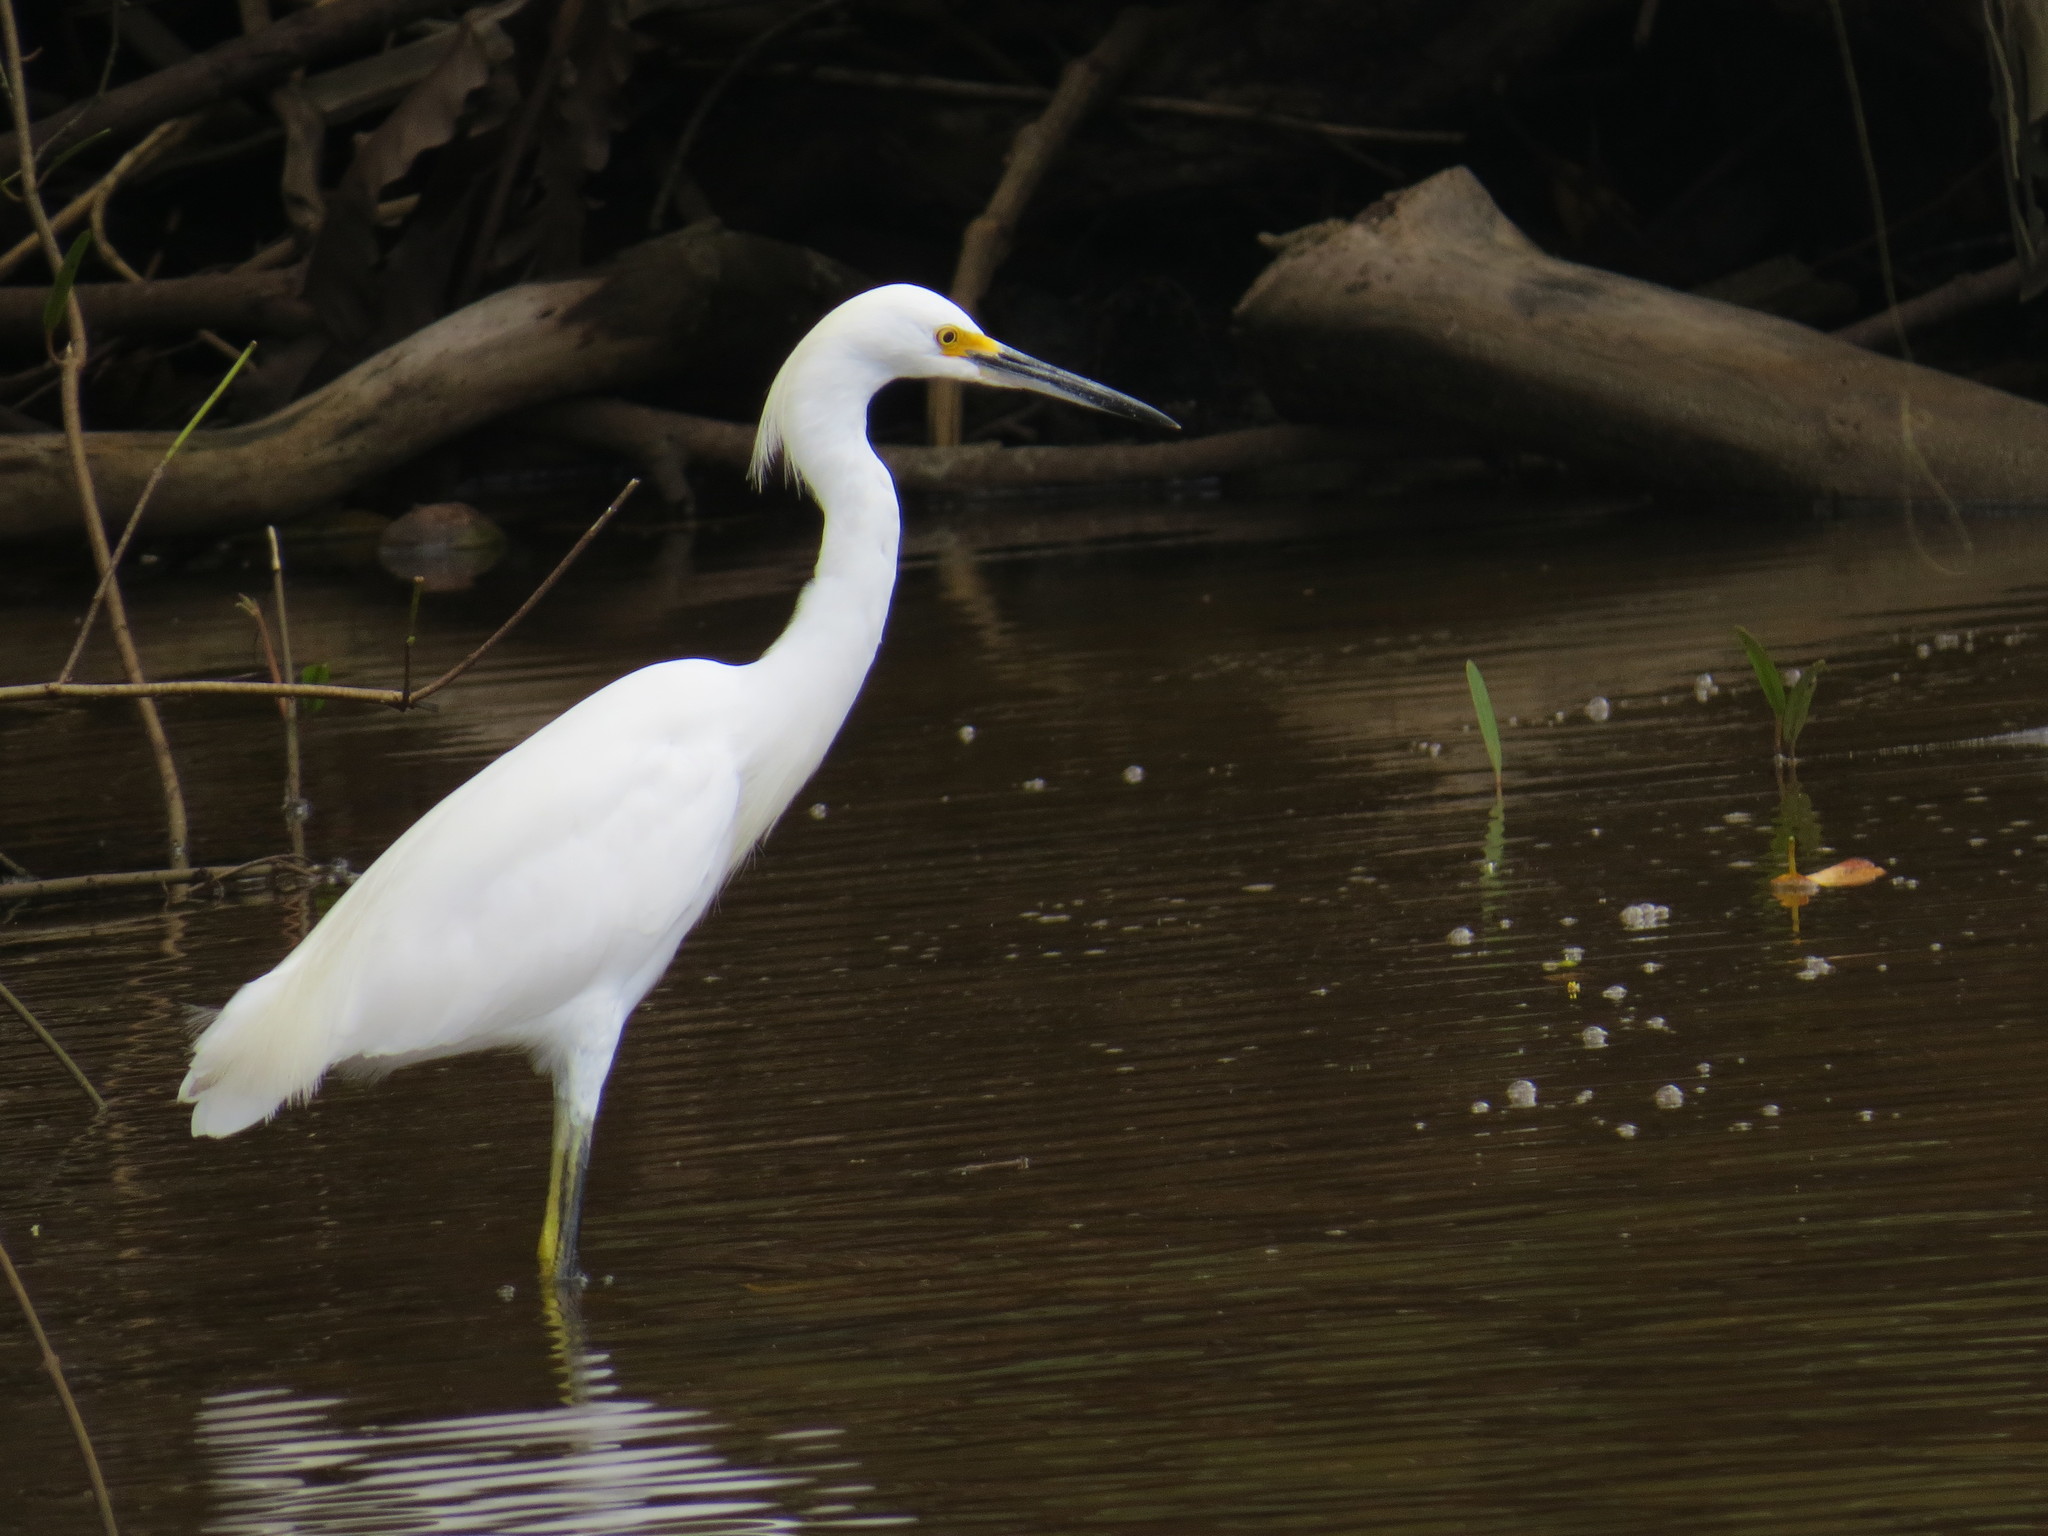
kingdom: Animalia
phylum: Chordata
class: Aves
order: Pelecaniformes
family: Ardeidae
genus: Egretta
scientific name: Egretta thula
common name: Snowy egret
